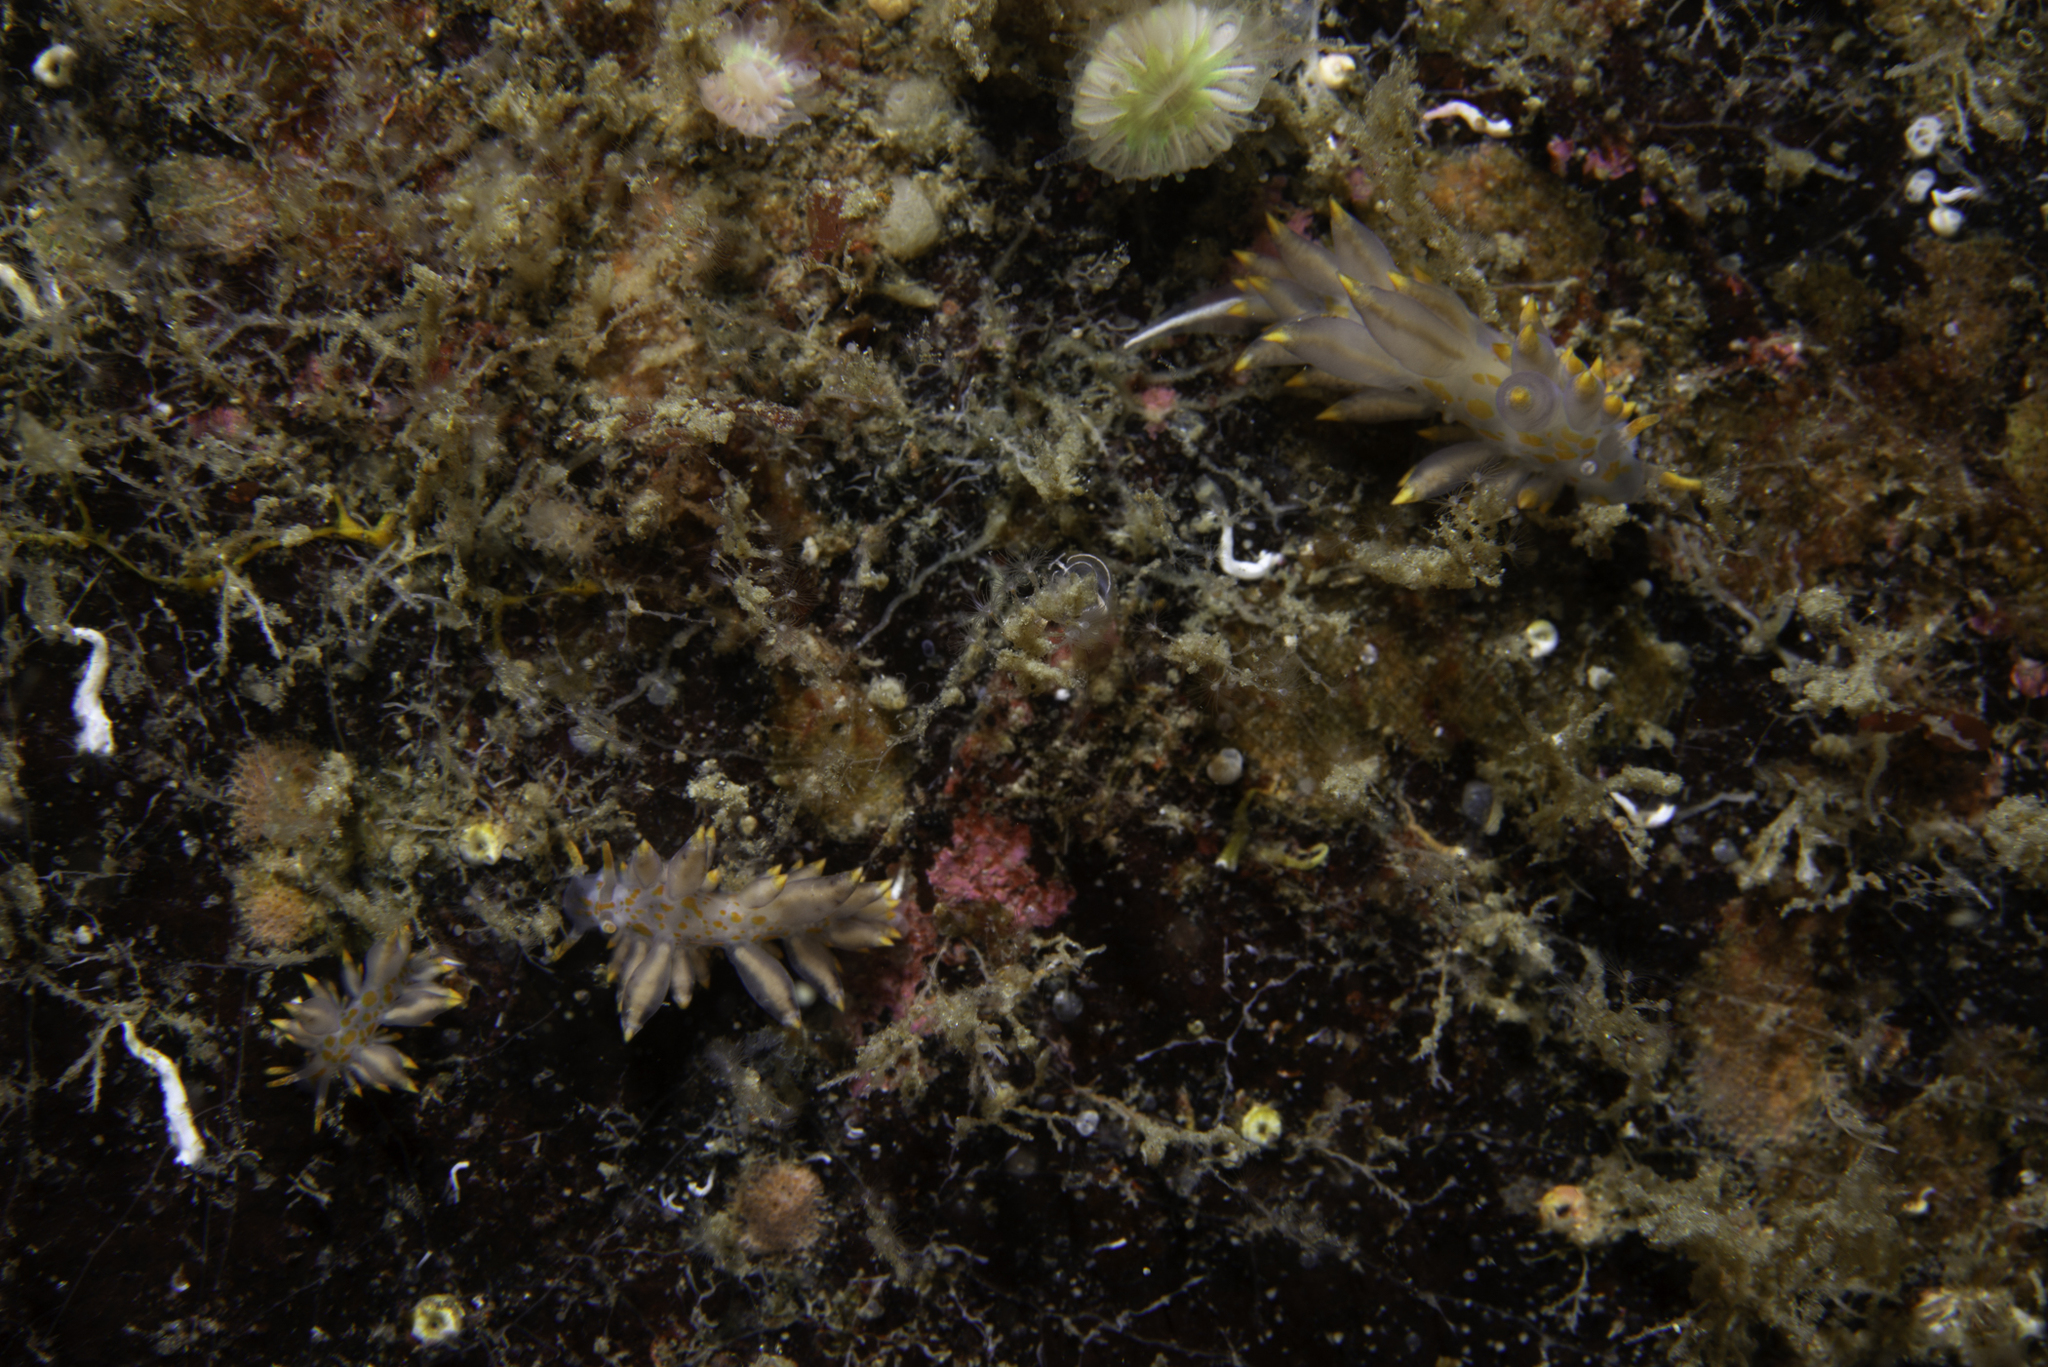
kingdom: Animalia
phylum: Mollusca
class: Gastropoda
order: Nudibranchia
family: Eubranchidae
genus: Amphorina
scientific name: Amphorina andra
